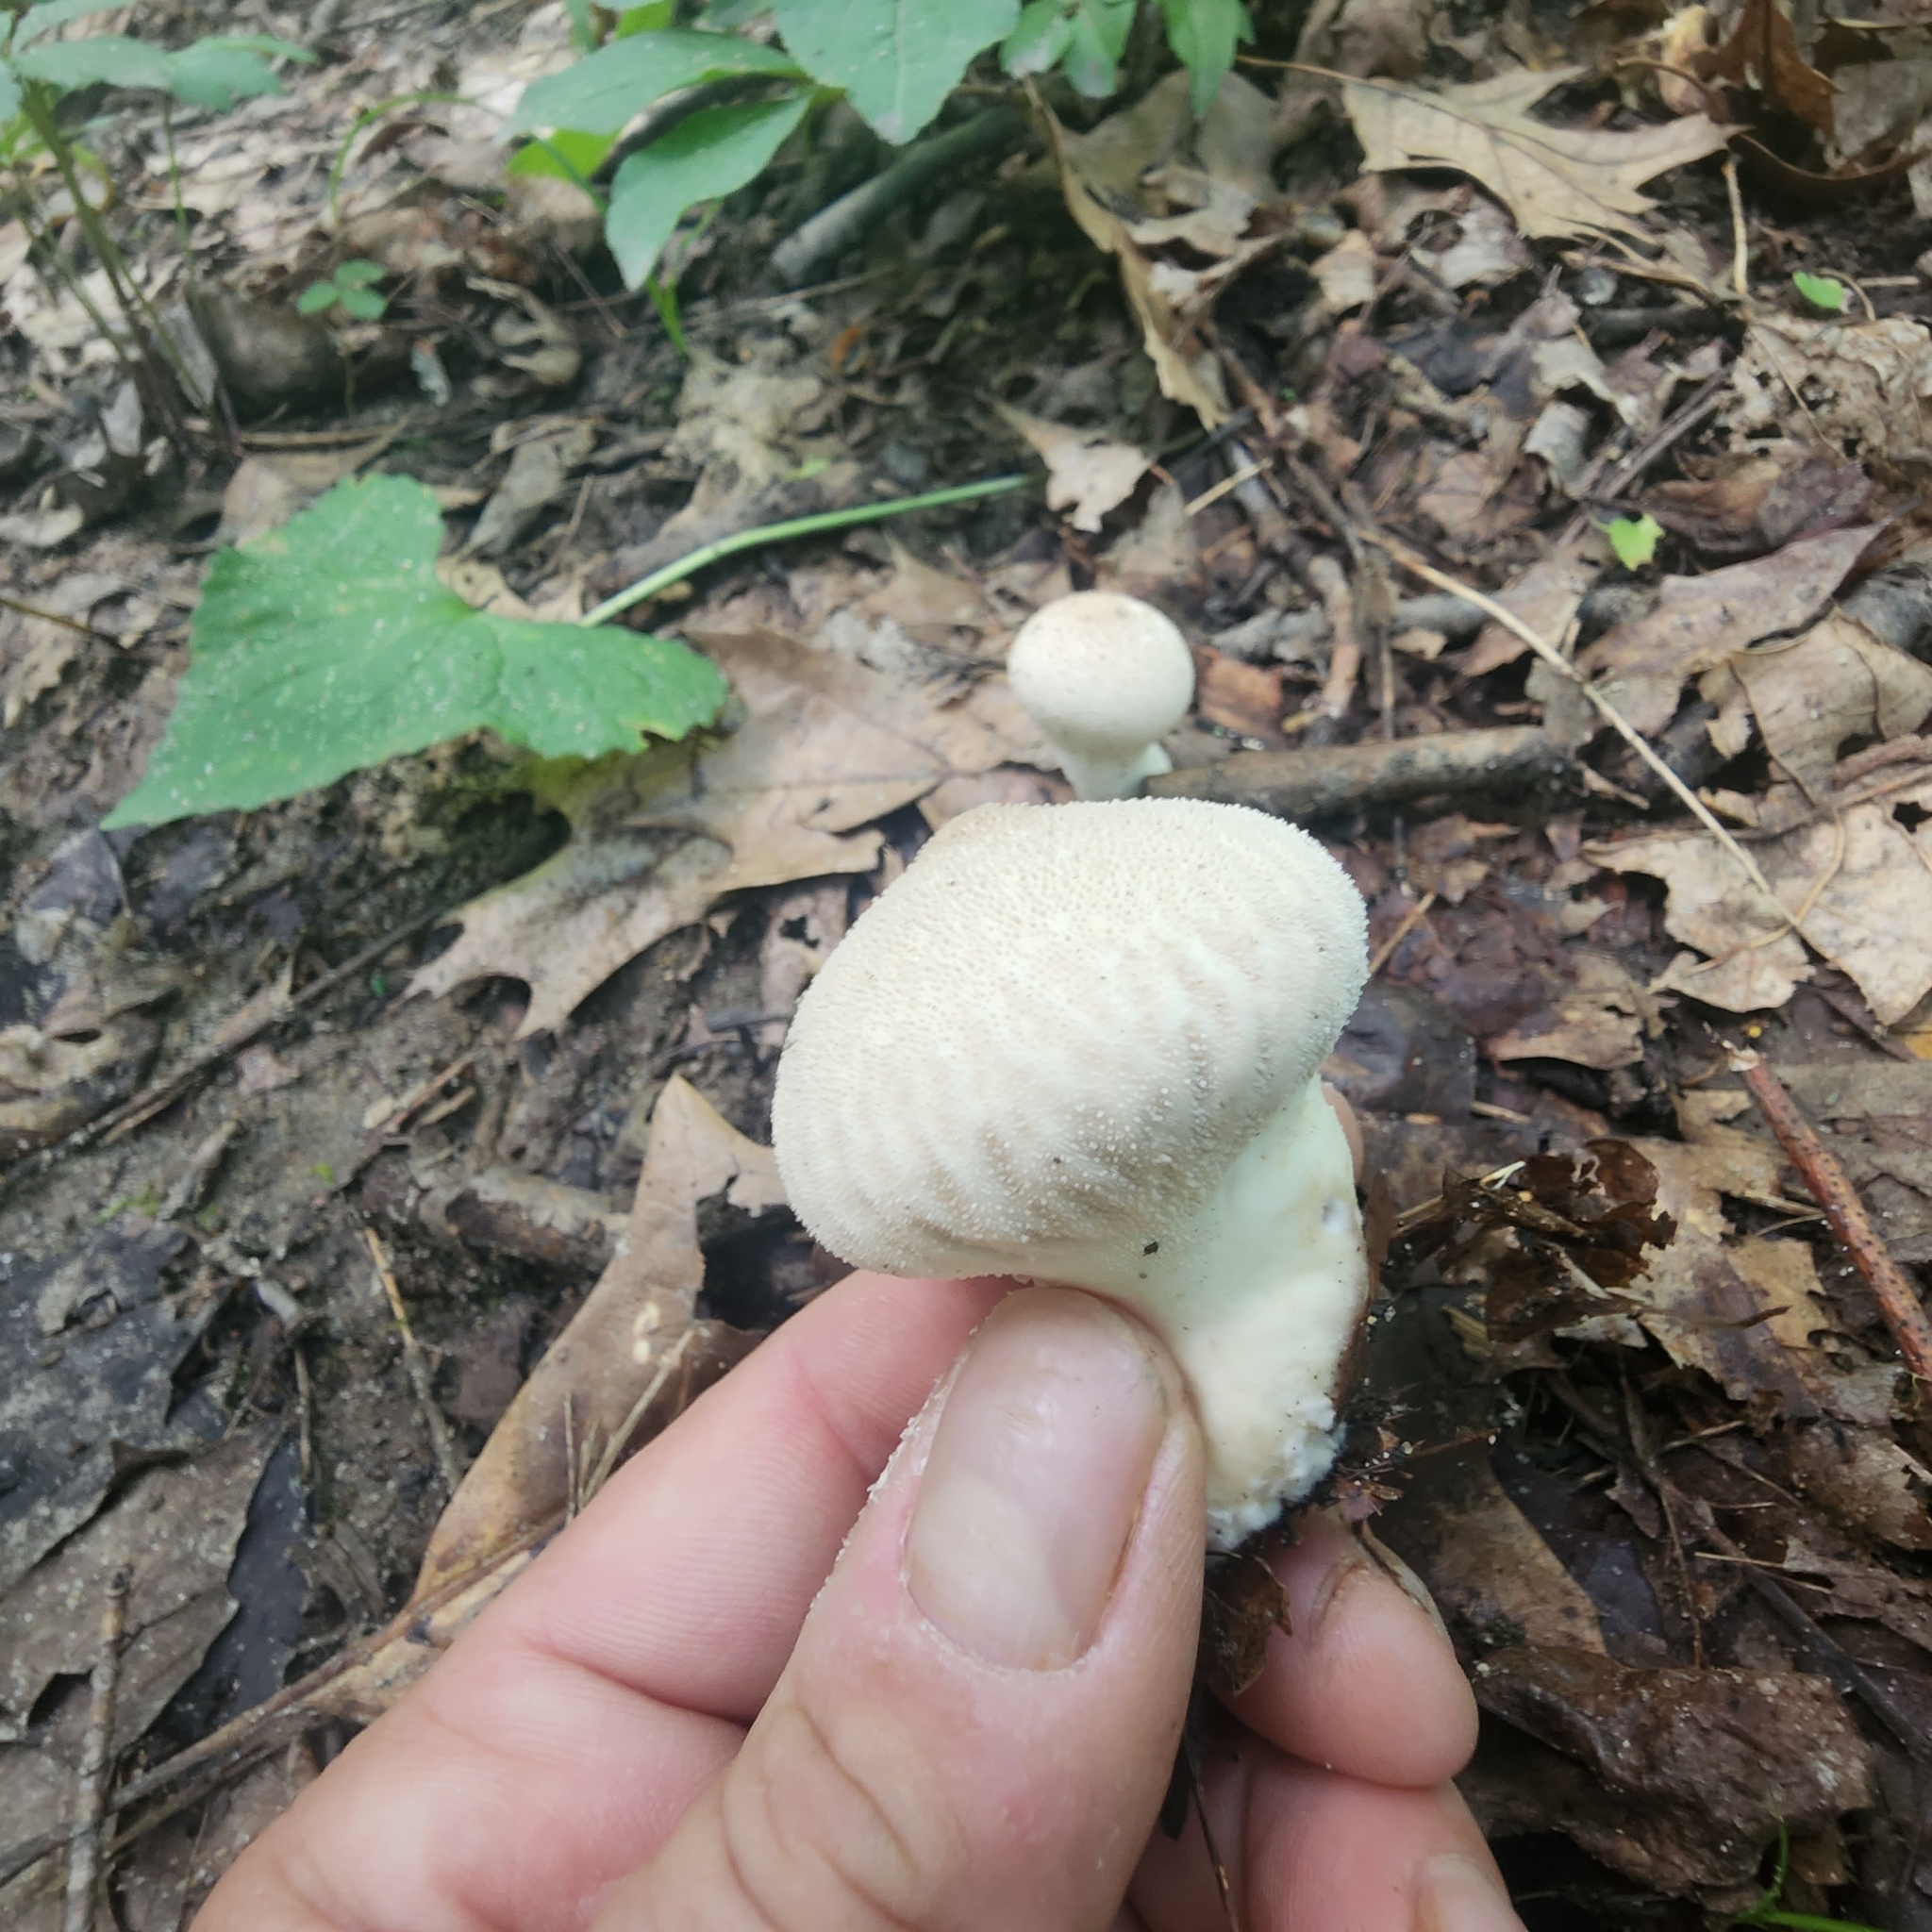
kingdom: Fungi
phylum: Basidiomycota
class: Agaricomycetes
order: Agaricales
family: Lycoperdaceae
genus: Lycoperdon
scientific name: Lycoperdon perlatum
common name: Common puffball
